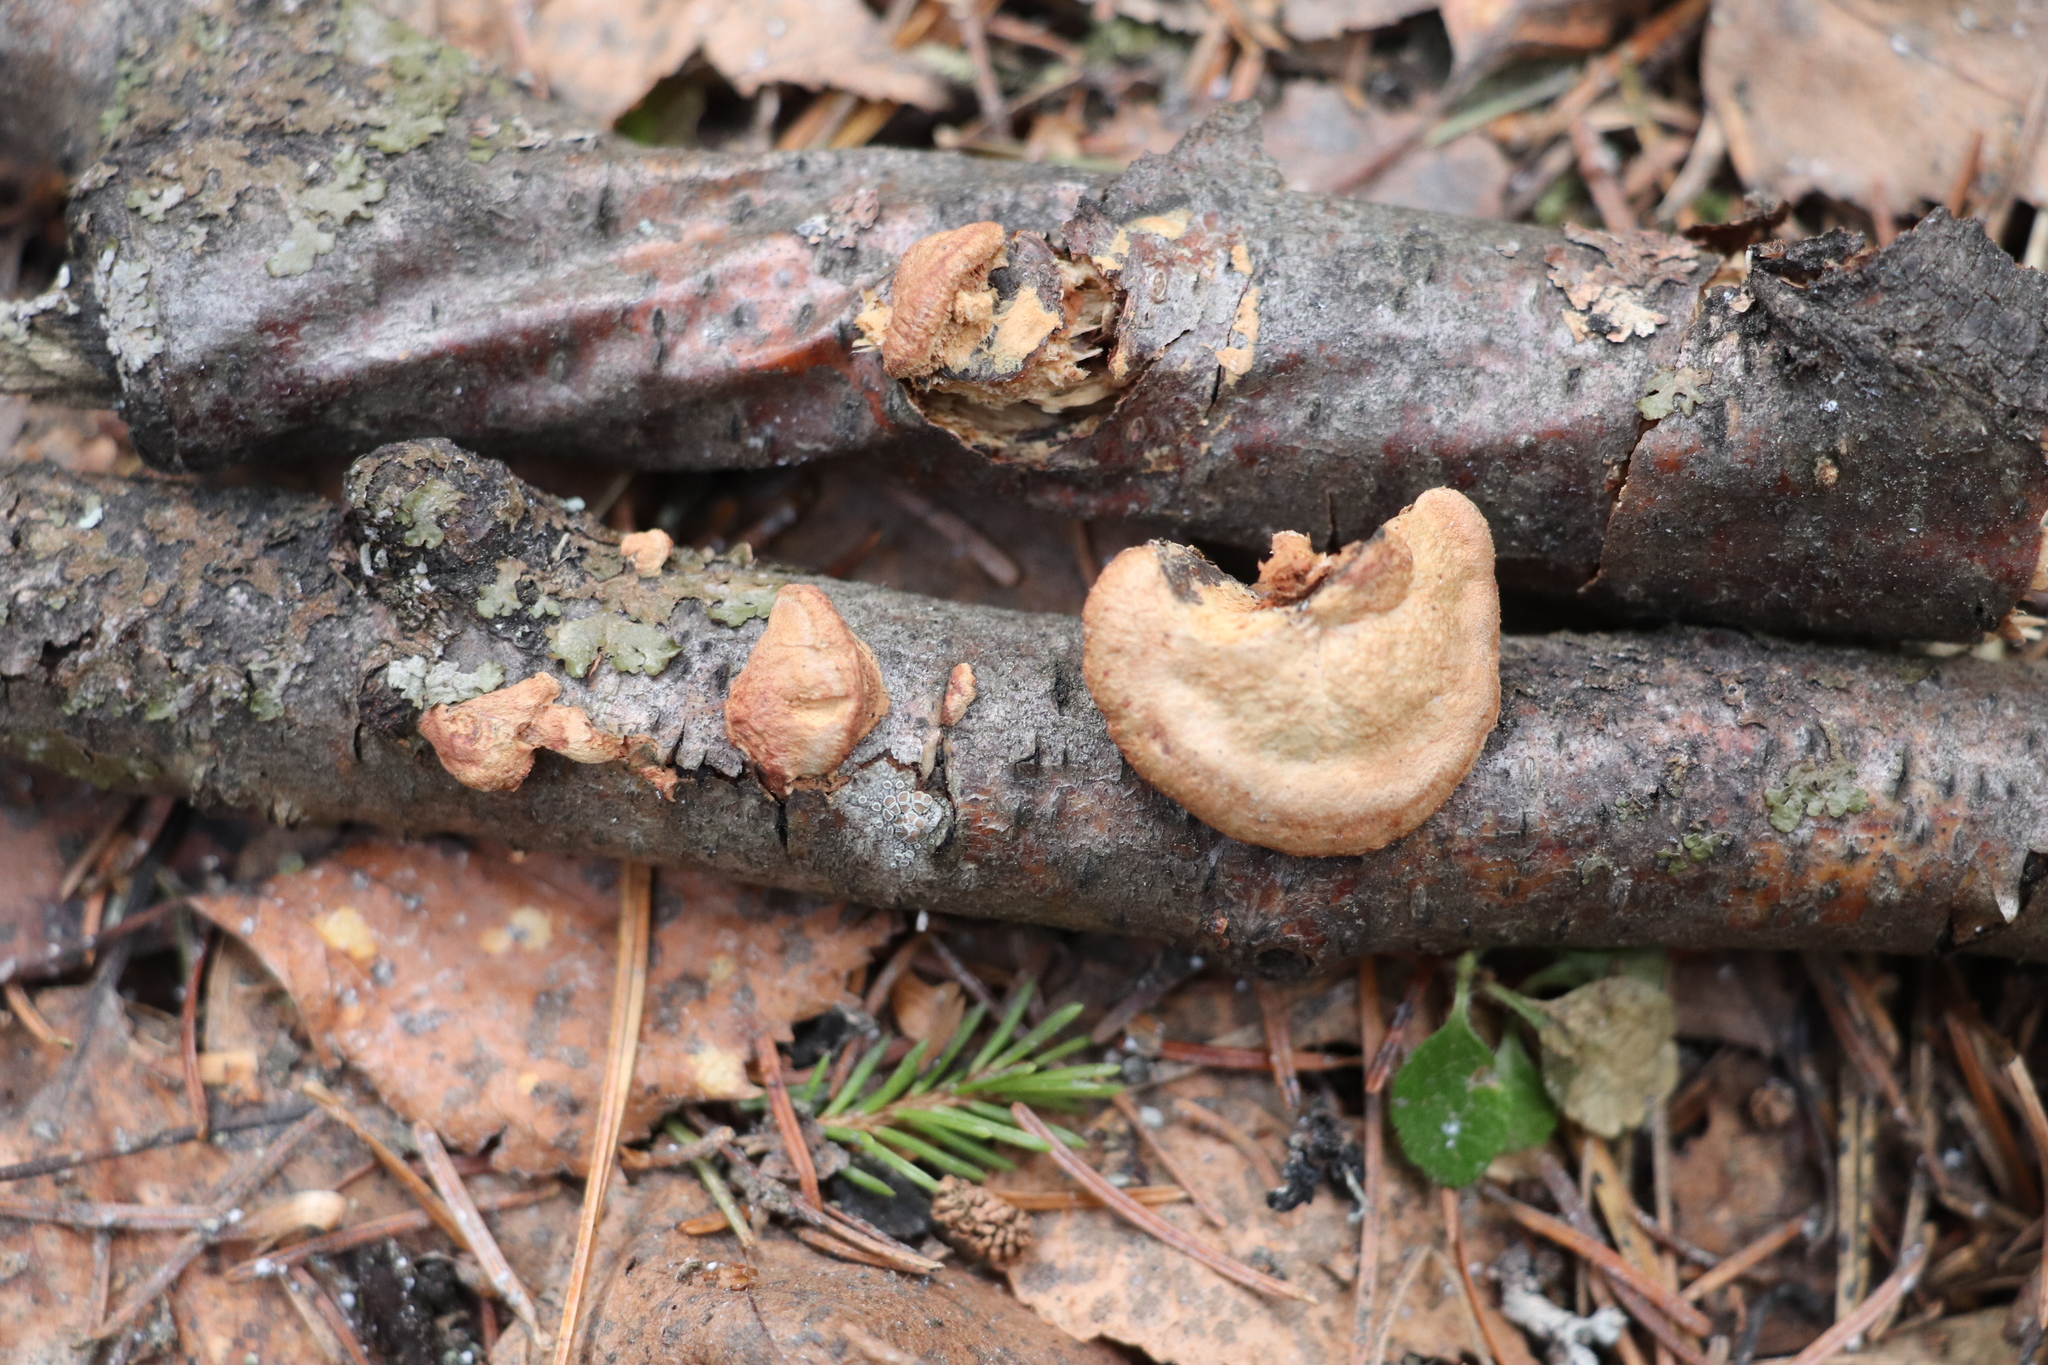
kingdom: Fungi
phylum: Basidiomycota
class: Agaricomycetes
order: Polyporales
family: Phanerochaetaceae
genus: Hapalopilus
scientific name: Hapalopilus rutilans
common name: Tender nesting polypore
